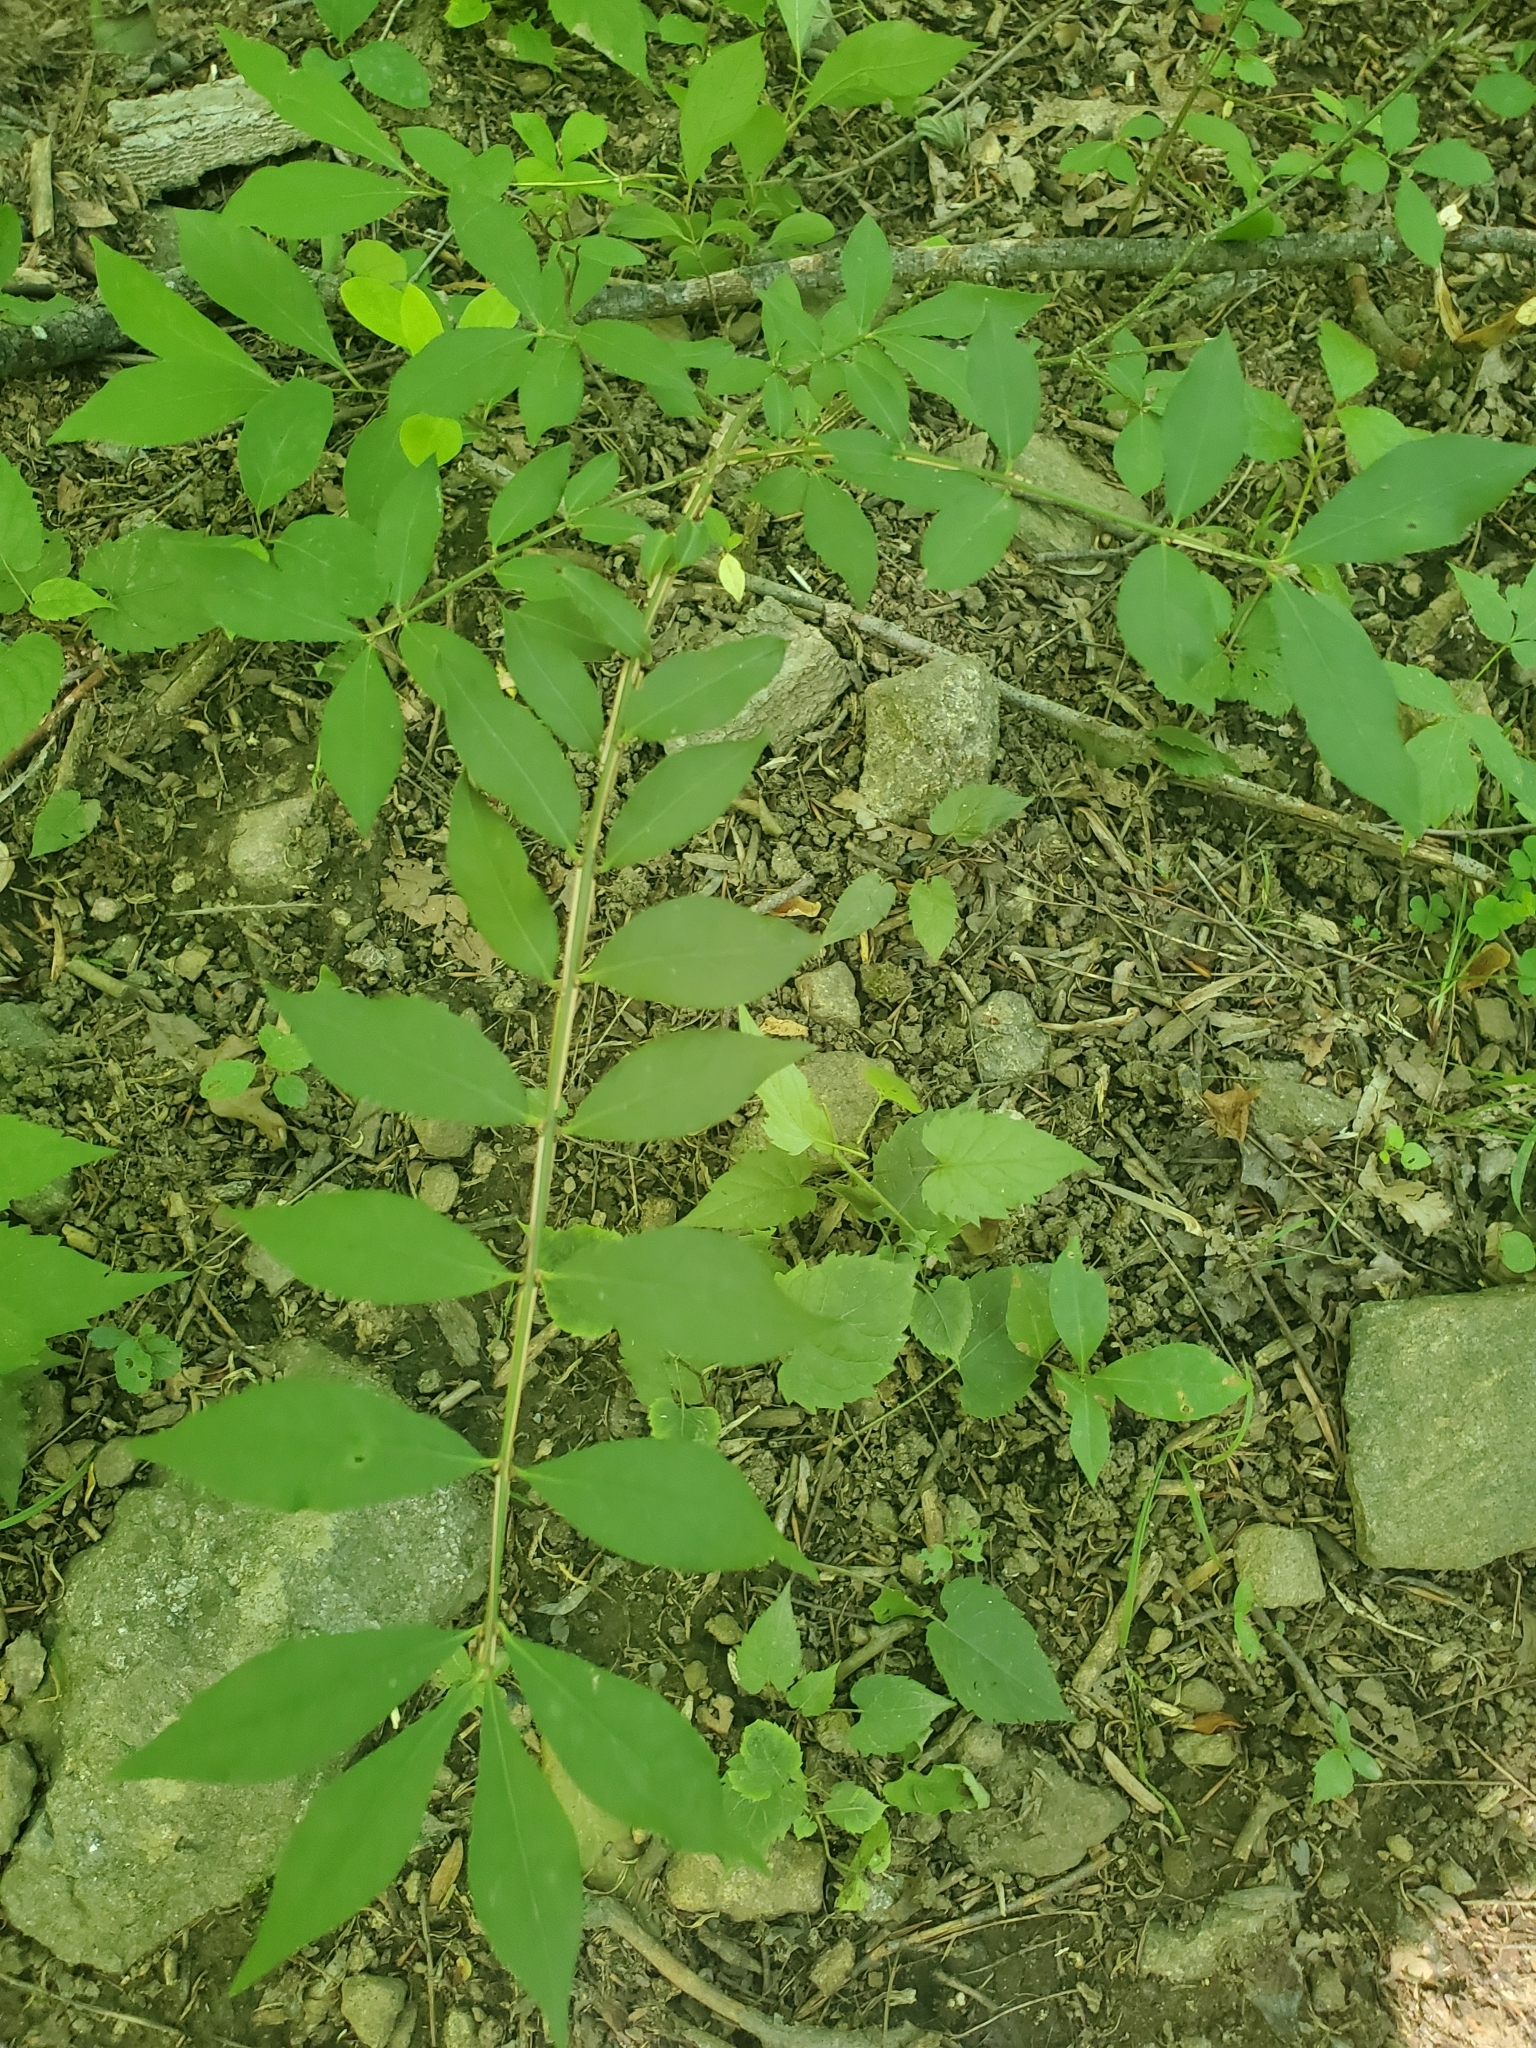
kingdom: Plantae
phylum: Tracheophyta
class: Magnoliopsida
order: Celastrales
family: Celastraceae
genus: Euonymus
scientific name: Euonymus alatus
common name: Winged euonymus
